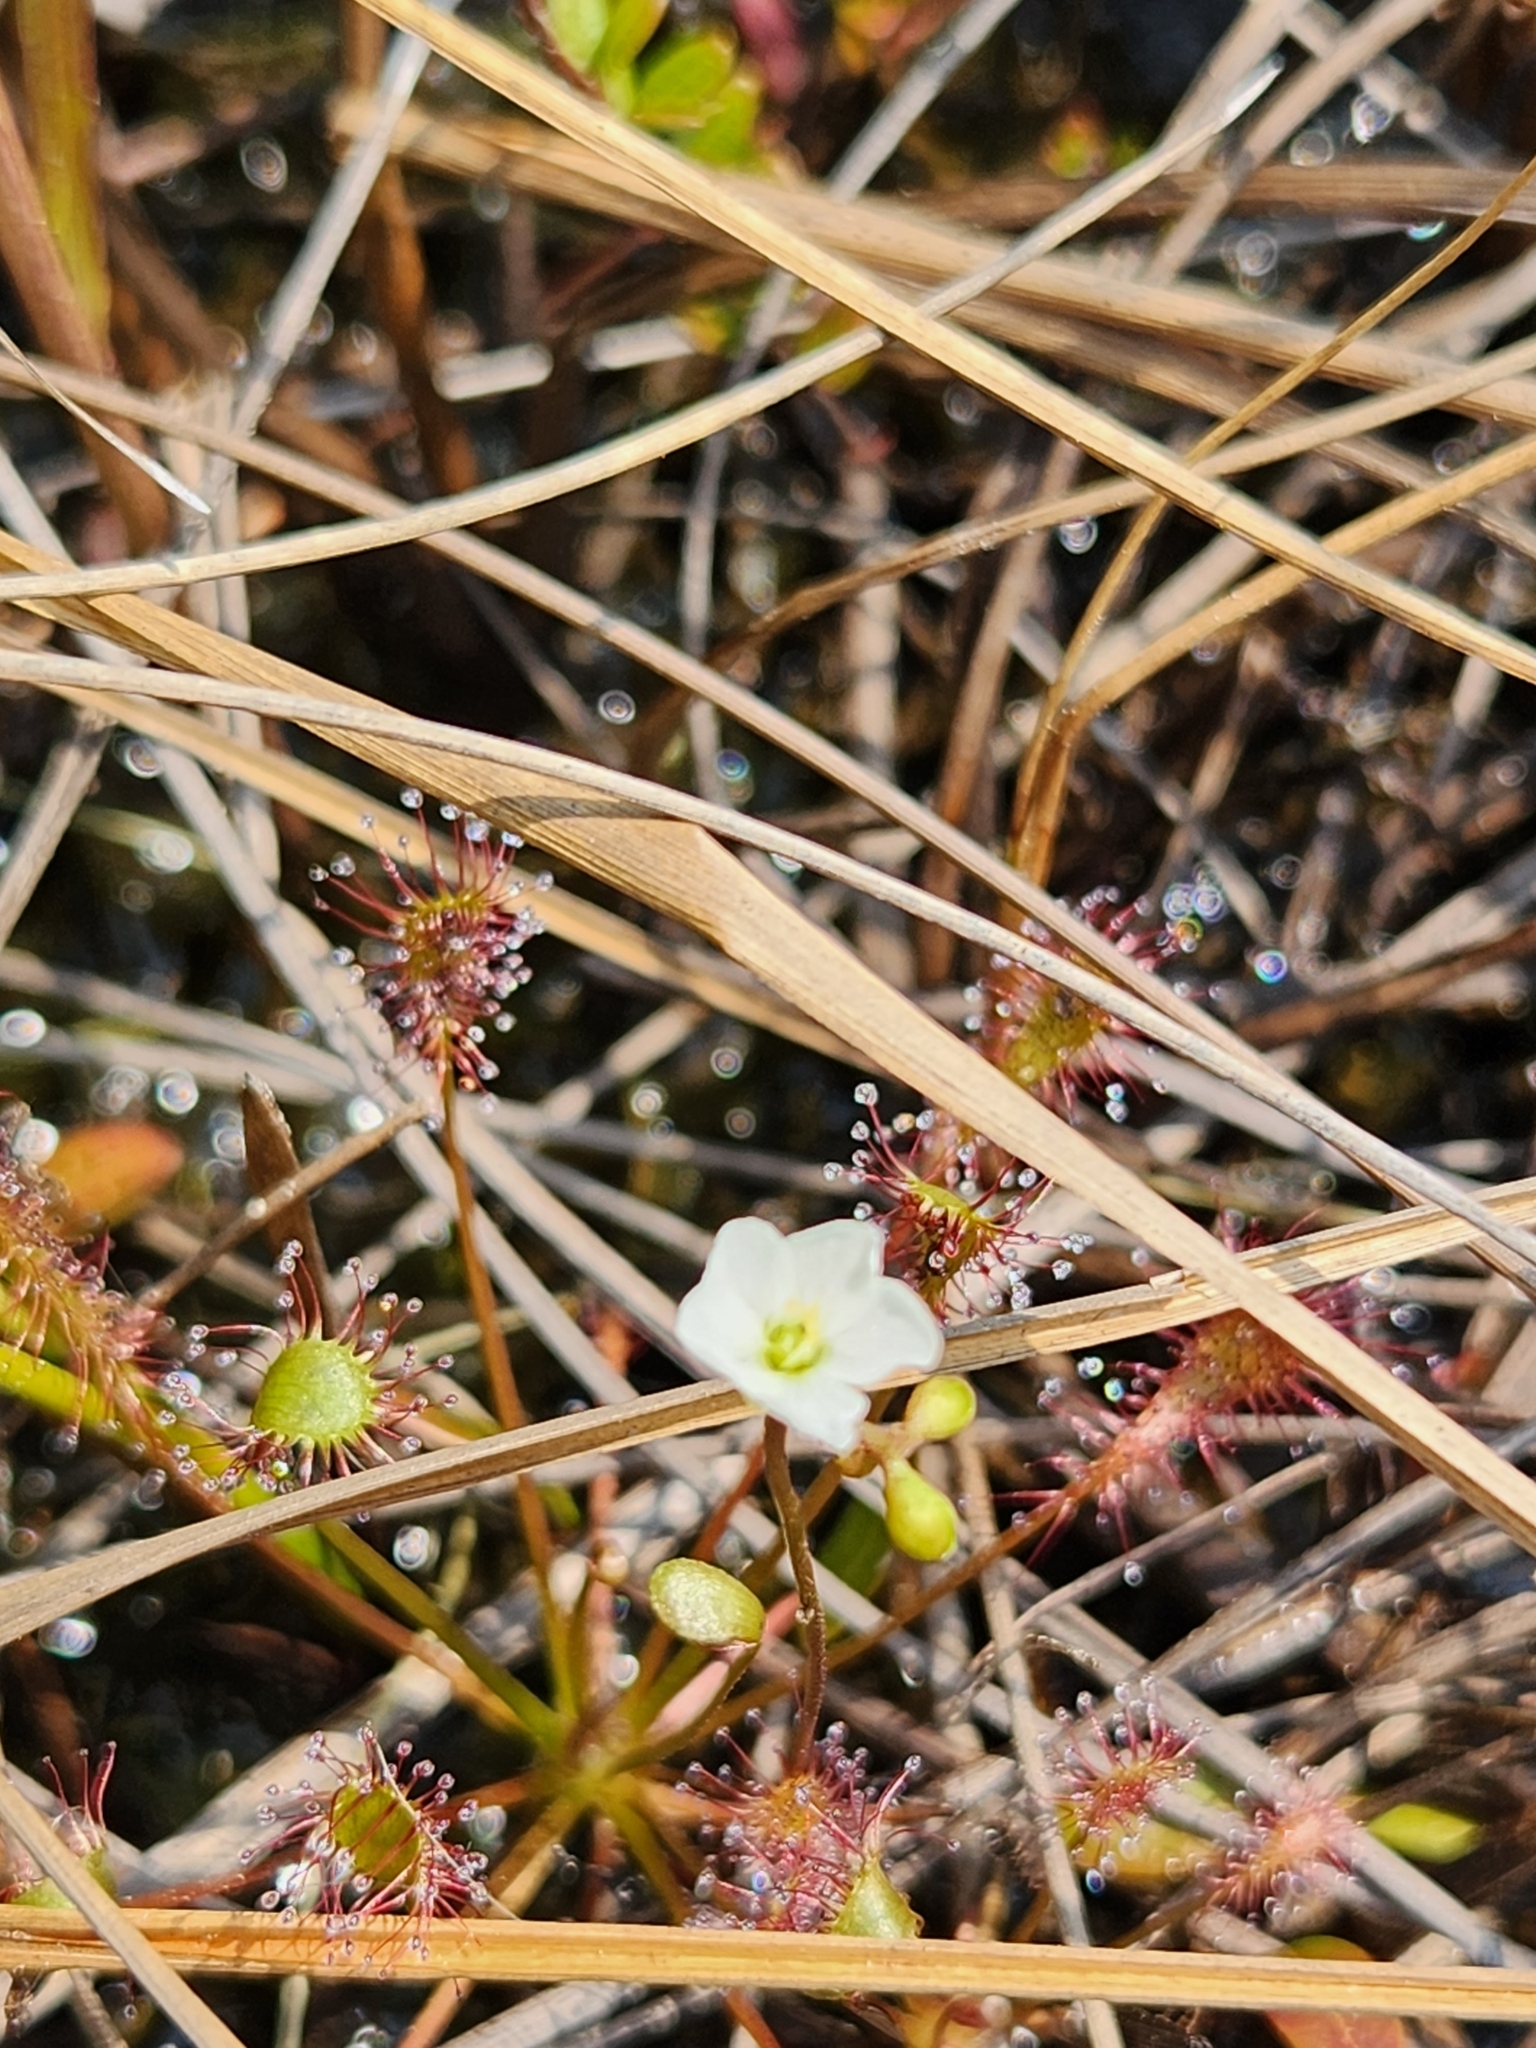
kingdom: Plantae
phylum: Tracheophyta
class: Magnoliopsida
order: Caryophyllales
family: Droseraceae
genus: Drosera
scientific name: Drosera intermedia
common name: Oblong-leaved sundew
